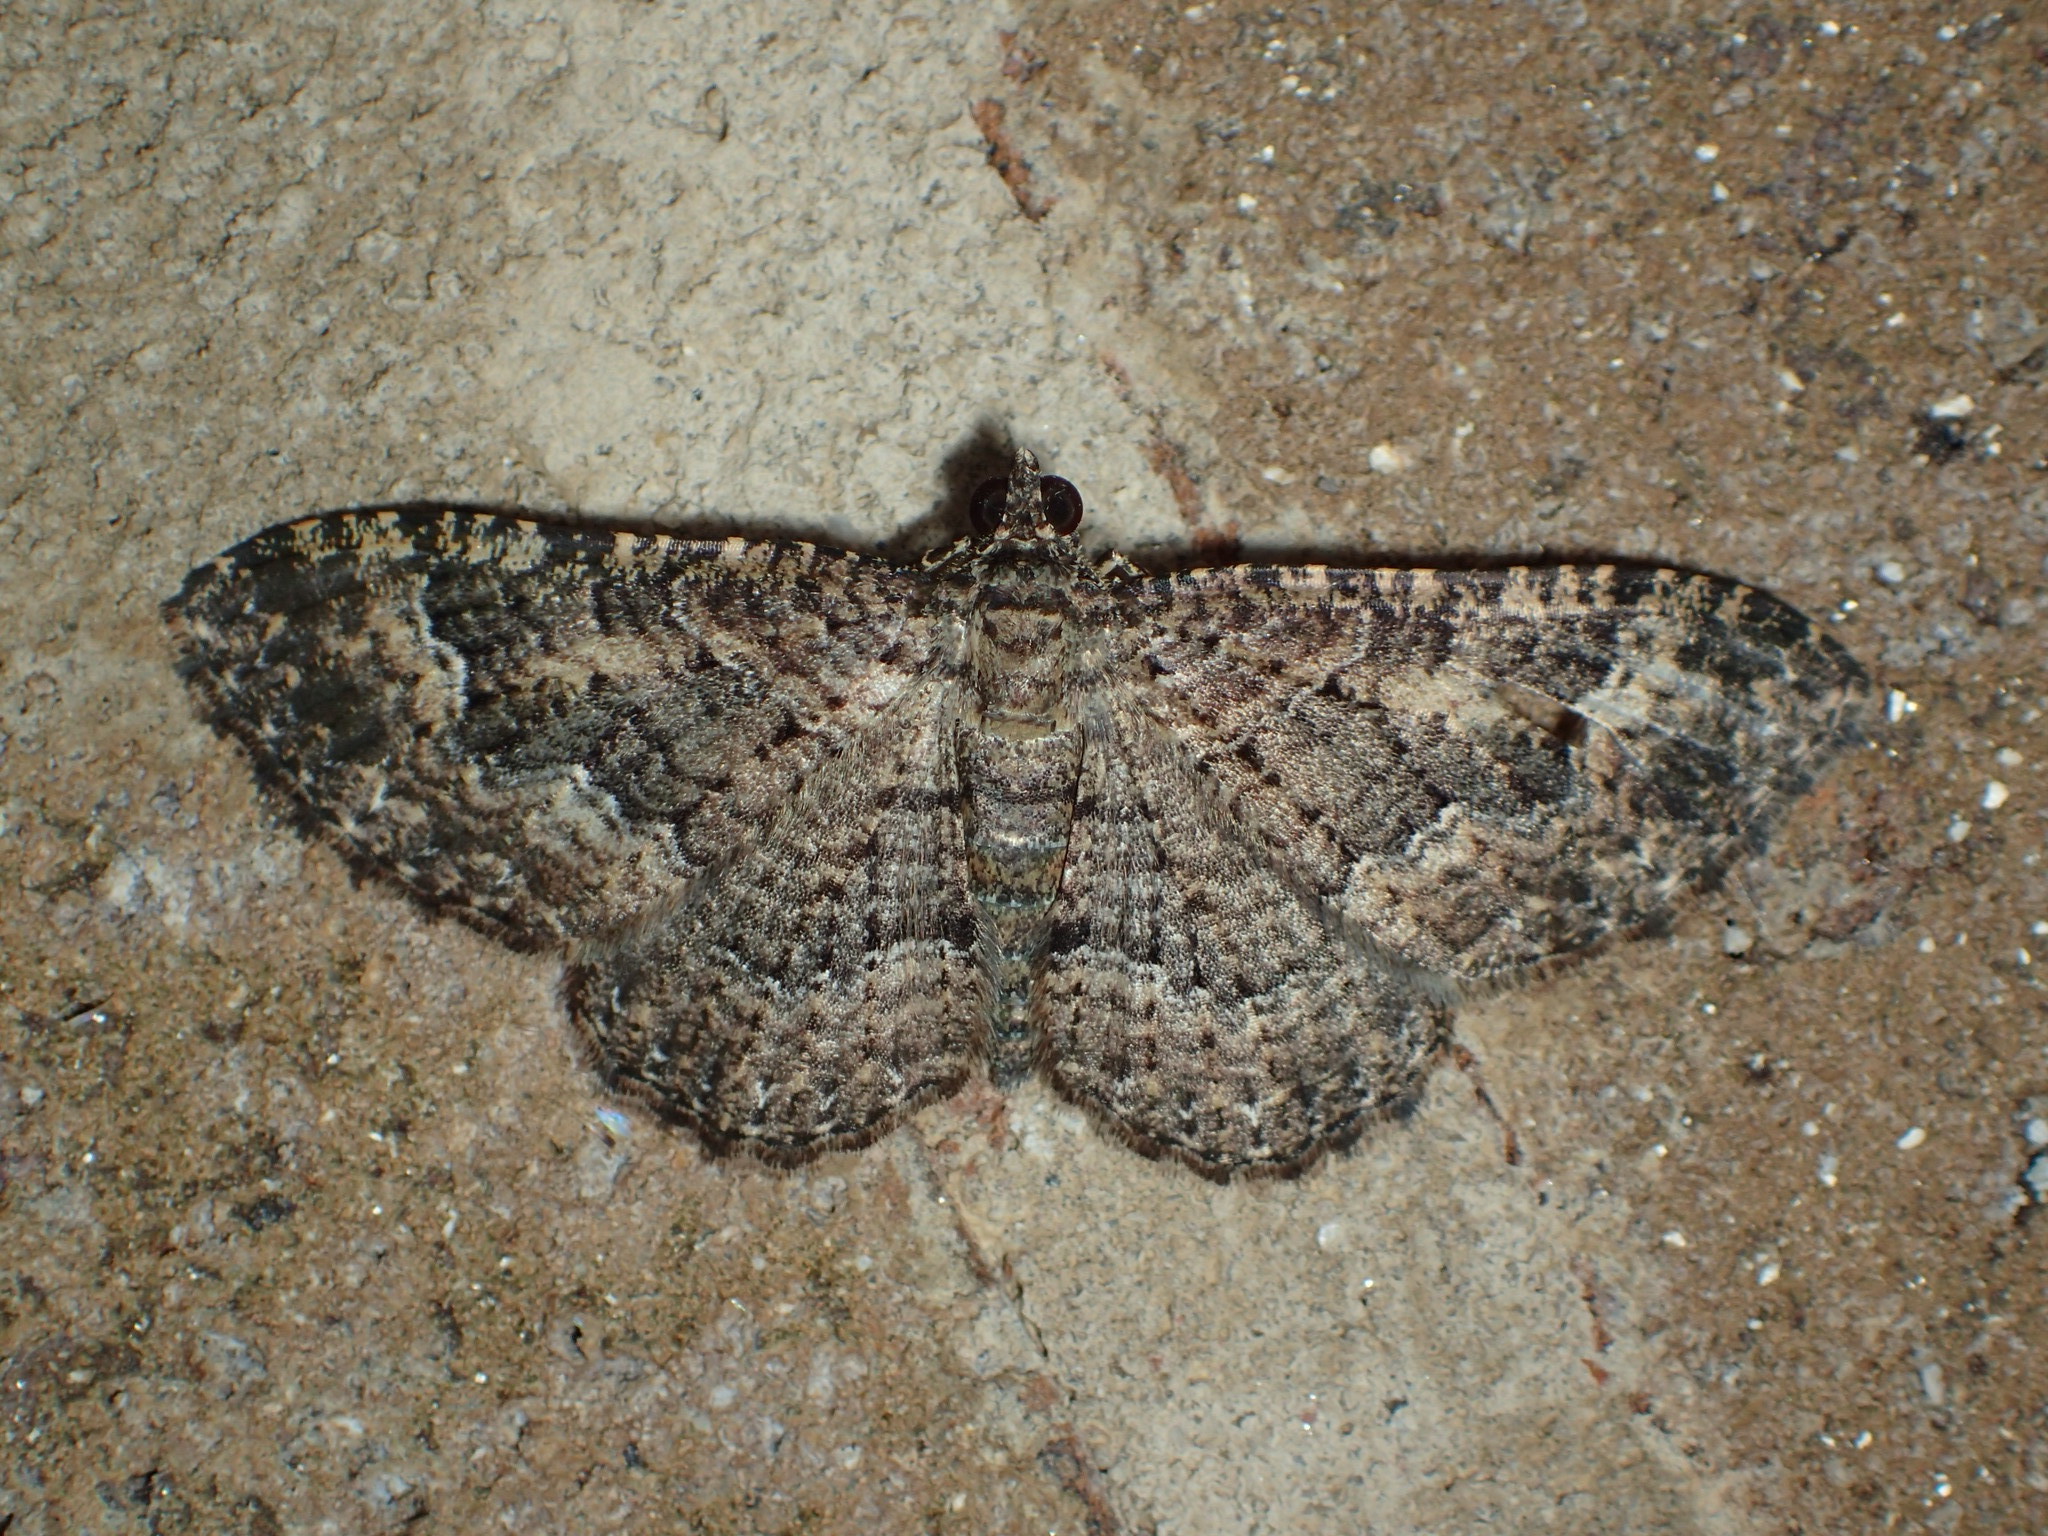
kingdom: Animalia
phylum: Arthropoda
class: Insecta
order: Lepidoptera
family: Geometridae
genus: Disclisioprocta
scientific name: Disclisioprocta stellata
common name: Somber carpet
